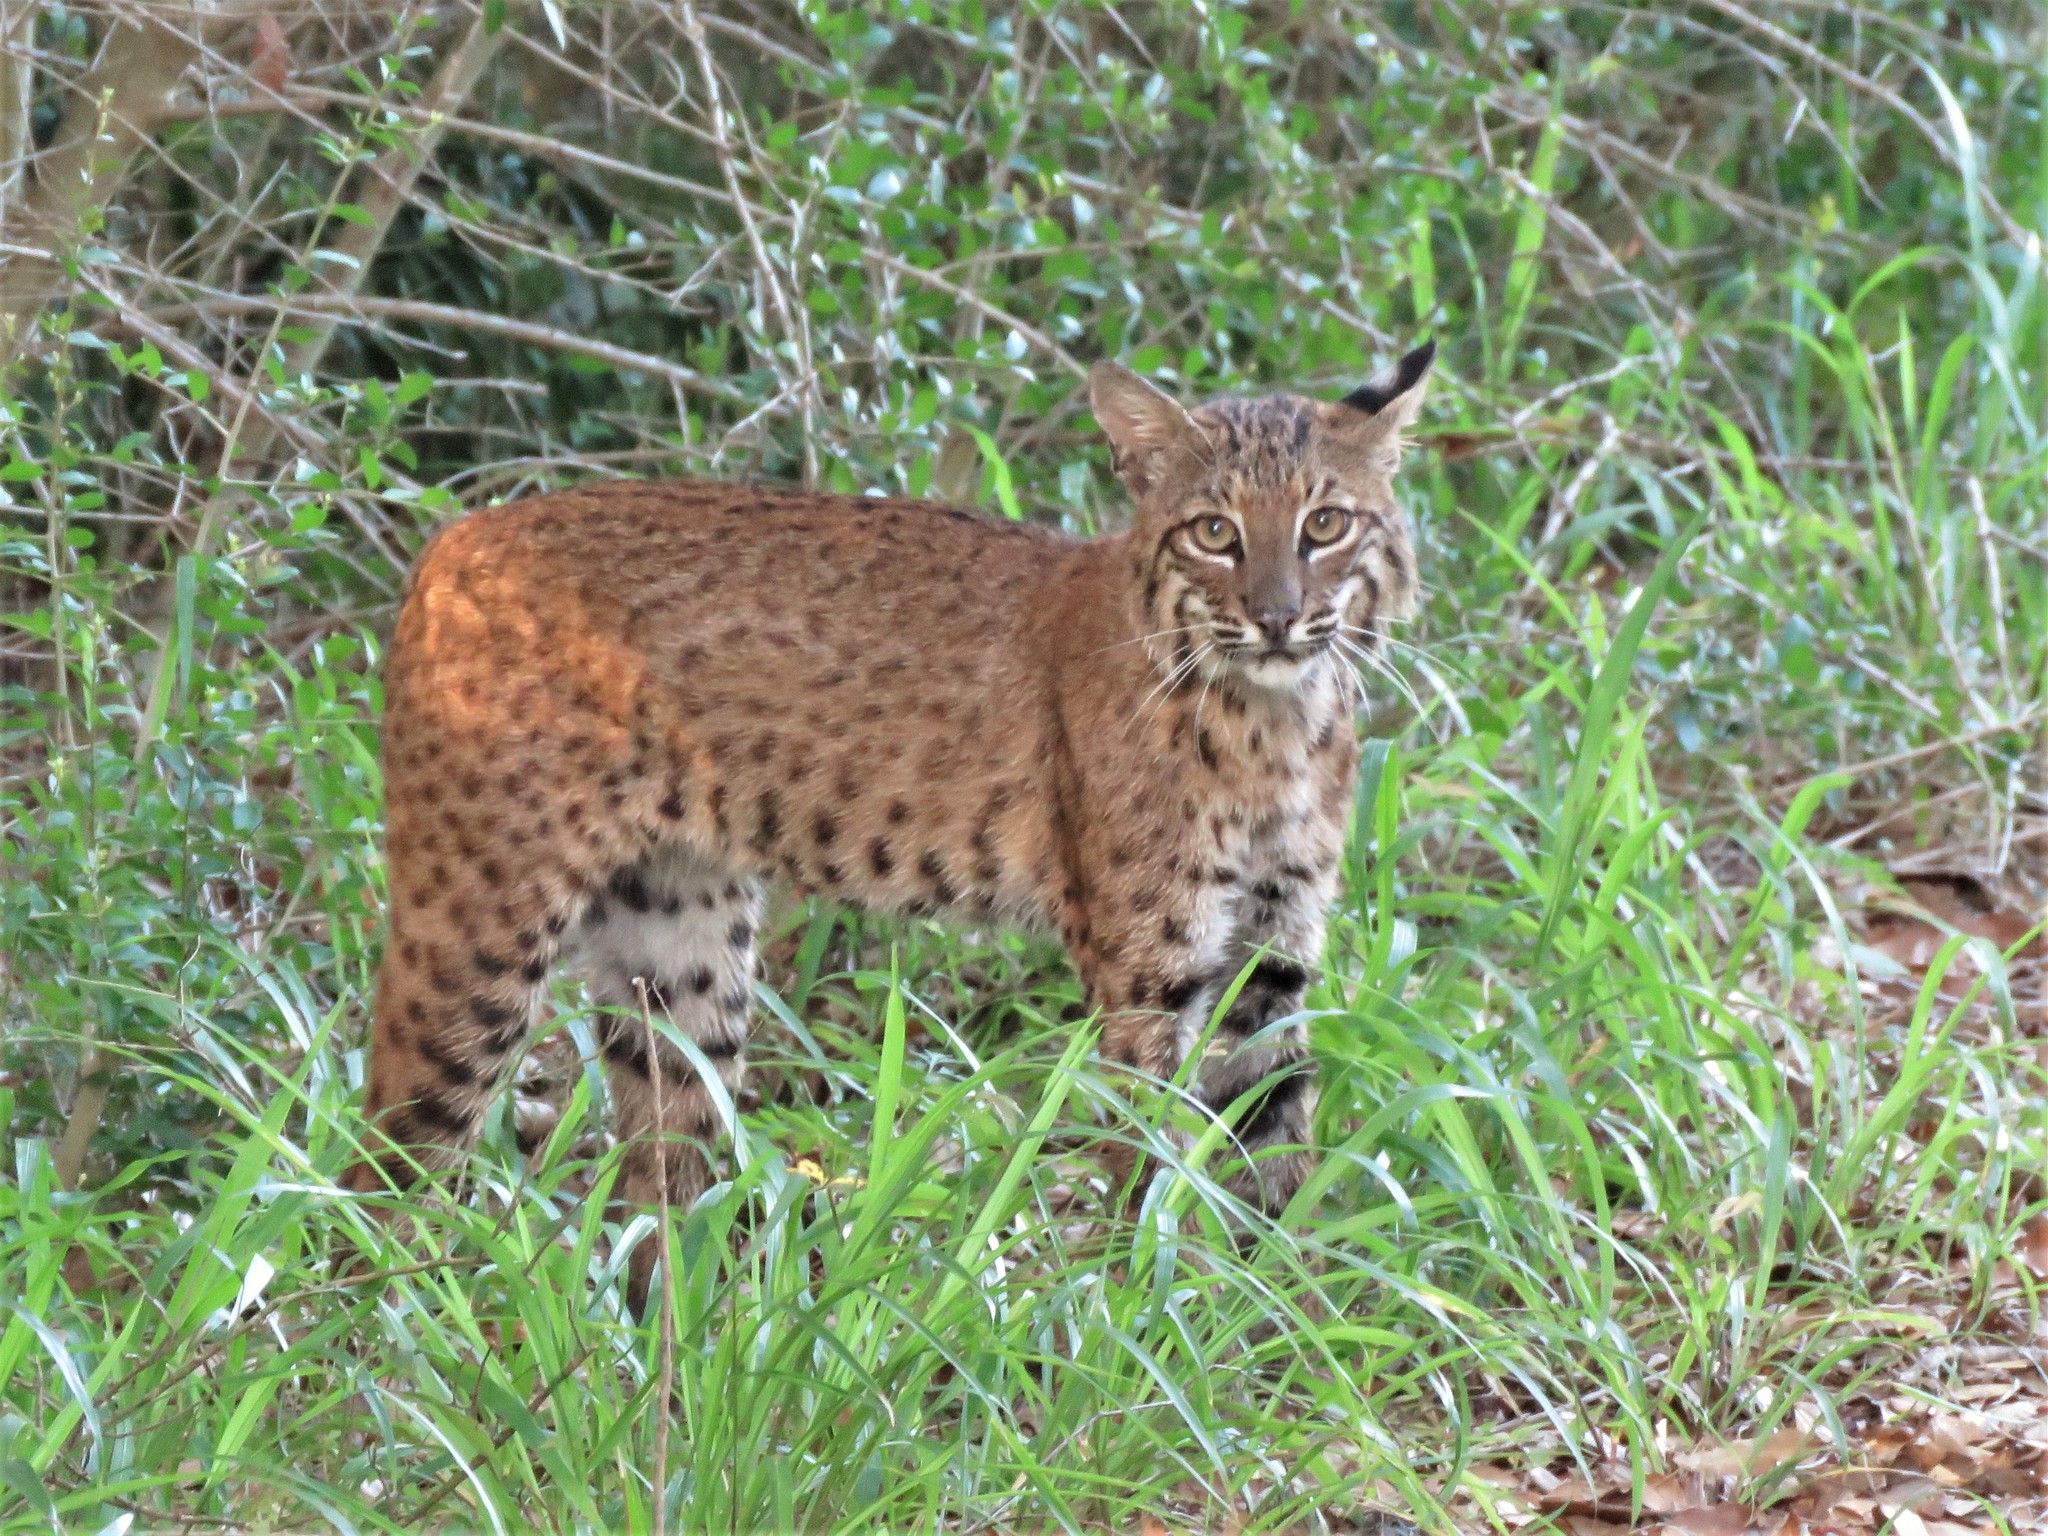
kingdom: Animalia
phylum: Chordata
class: Mammalia
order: Carnivora
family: Felidae
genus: Lynx
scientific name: Lynx rufus
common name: Bobcat
